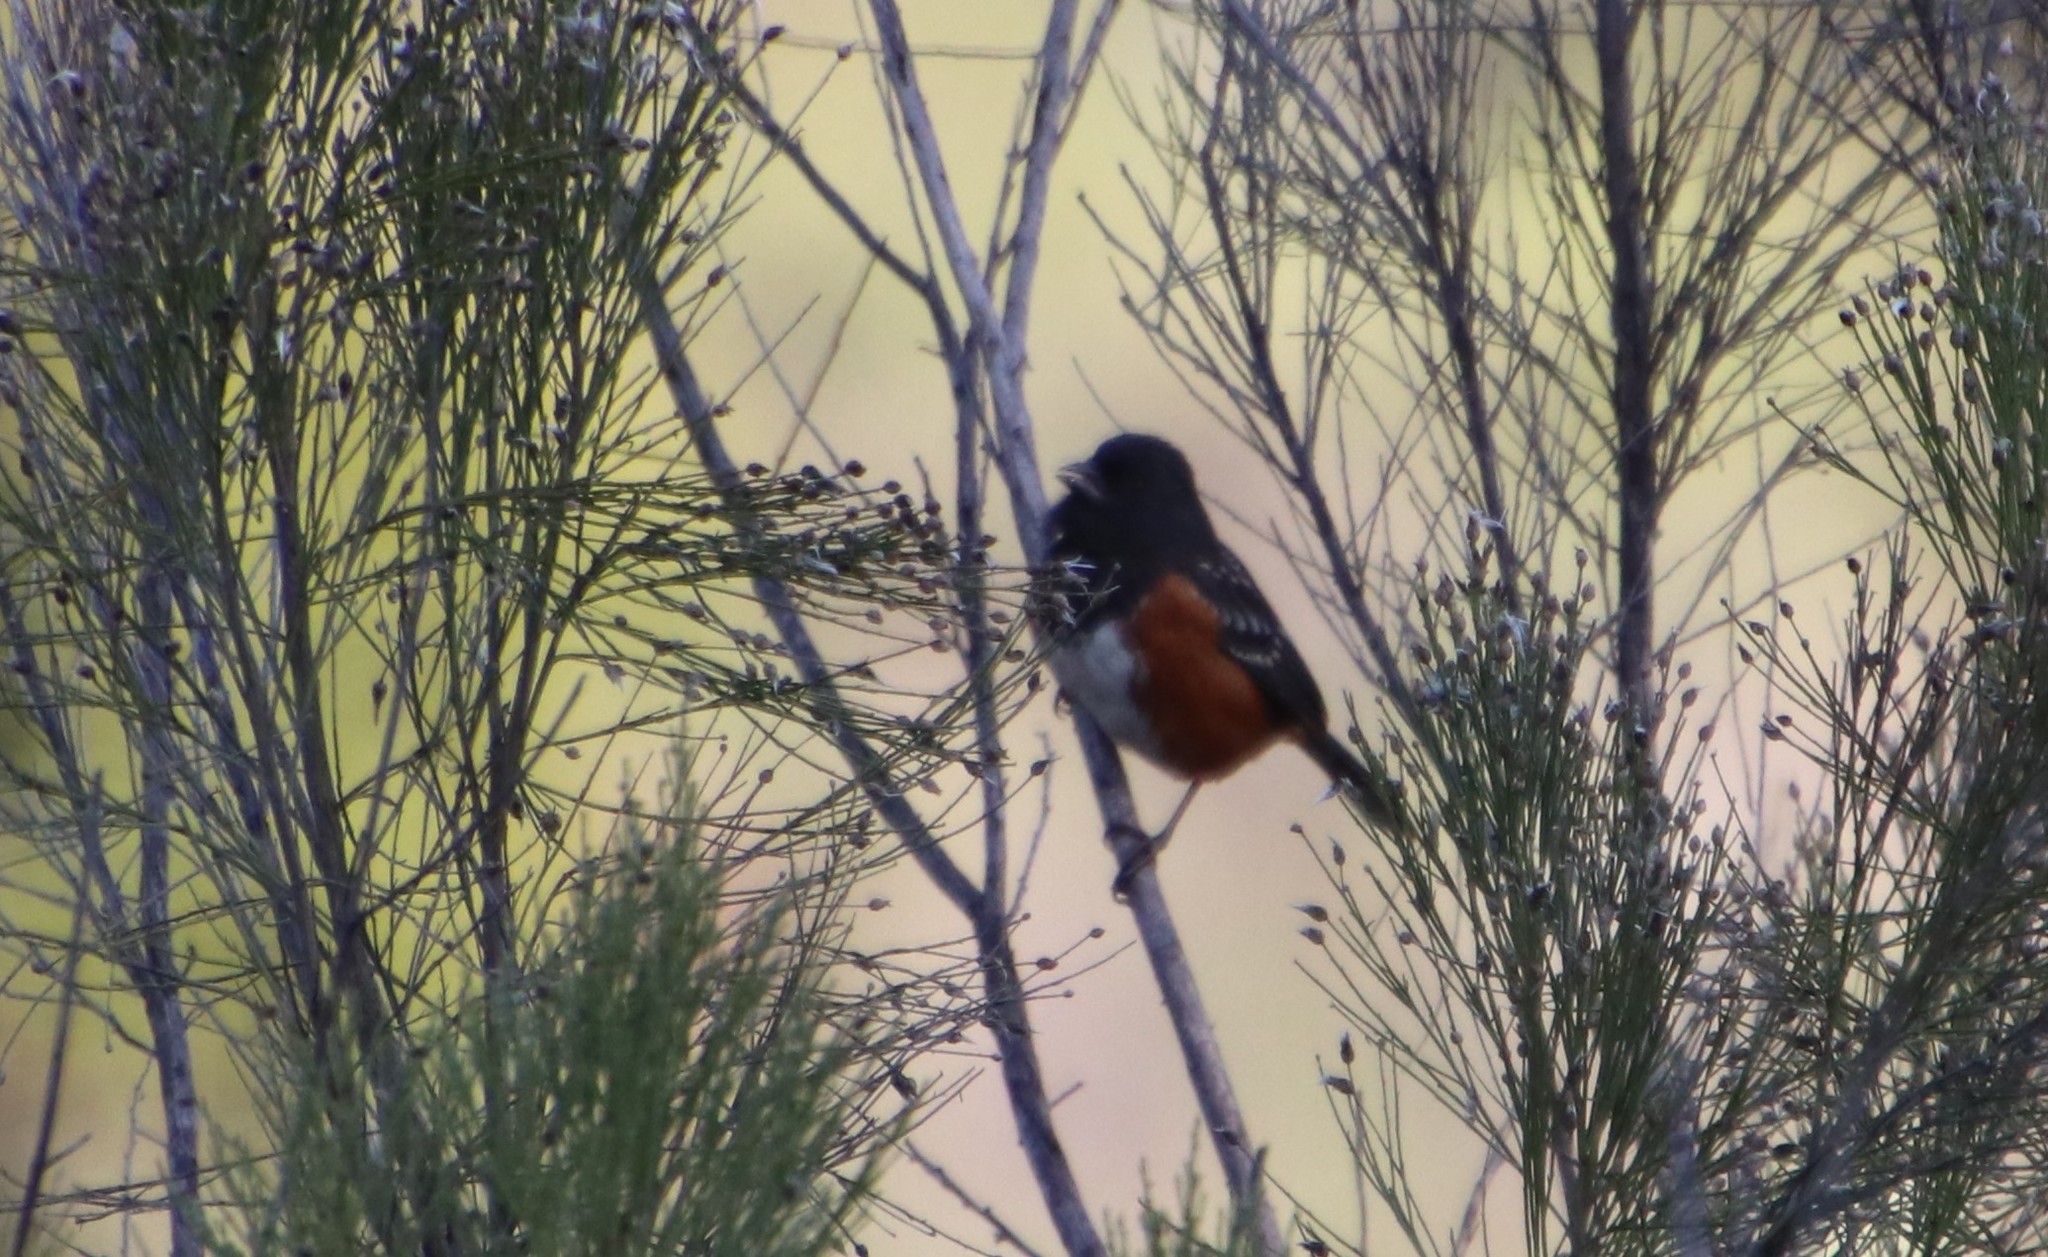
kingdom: Animalia
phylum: Chordata
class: Aves
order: Passeriformes
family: Passerellidae
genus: Pipilo
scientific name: Pipilo maculatus
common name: Spotted towhee
